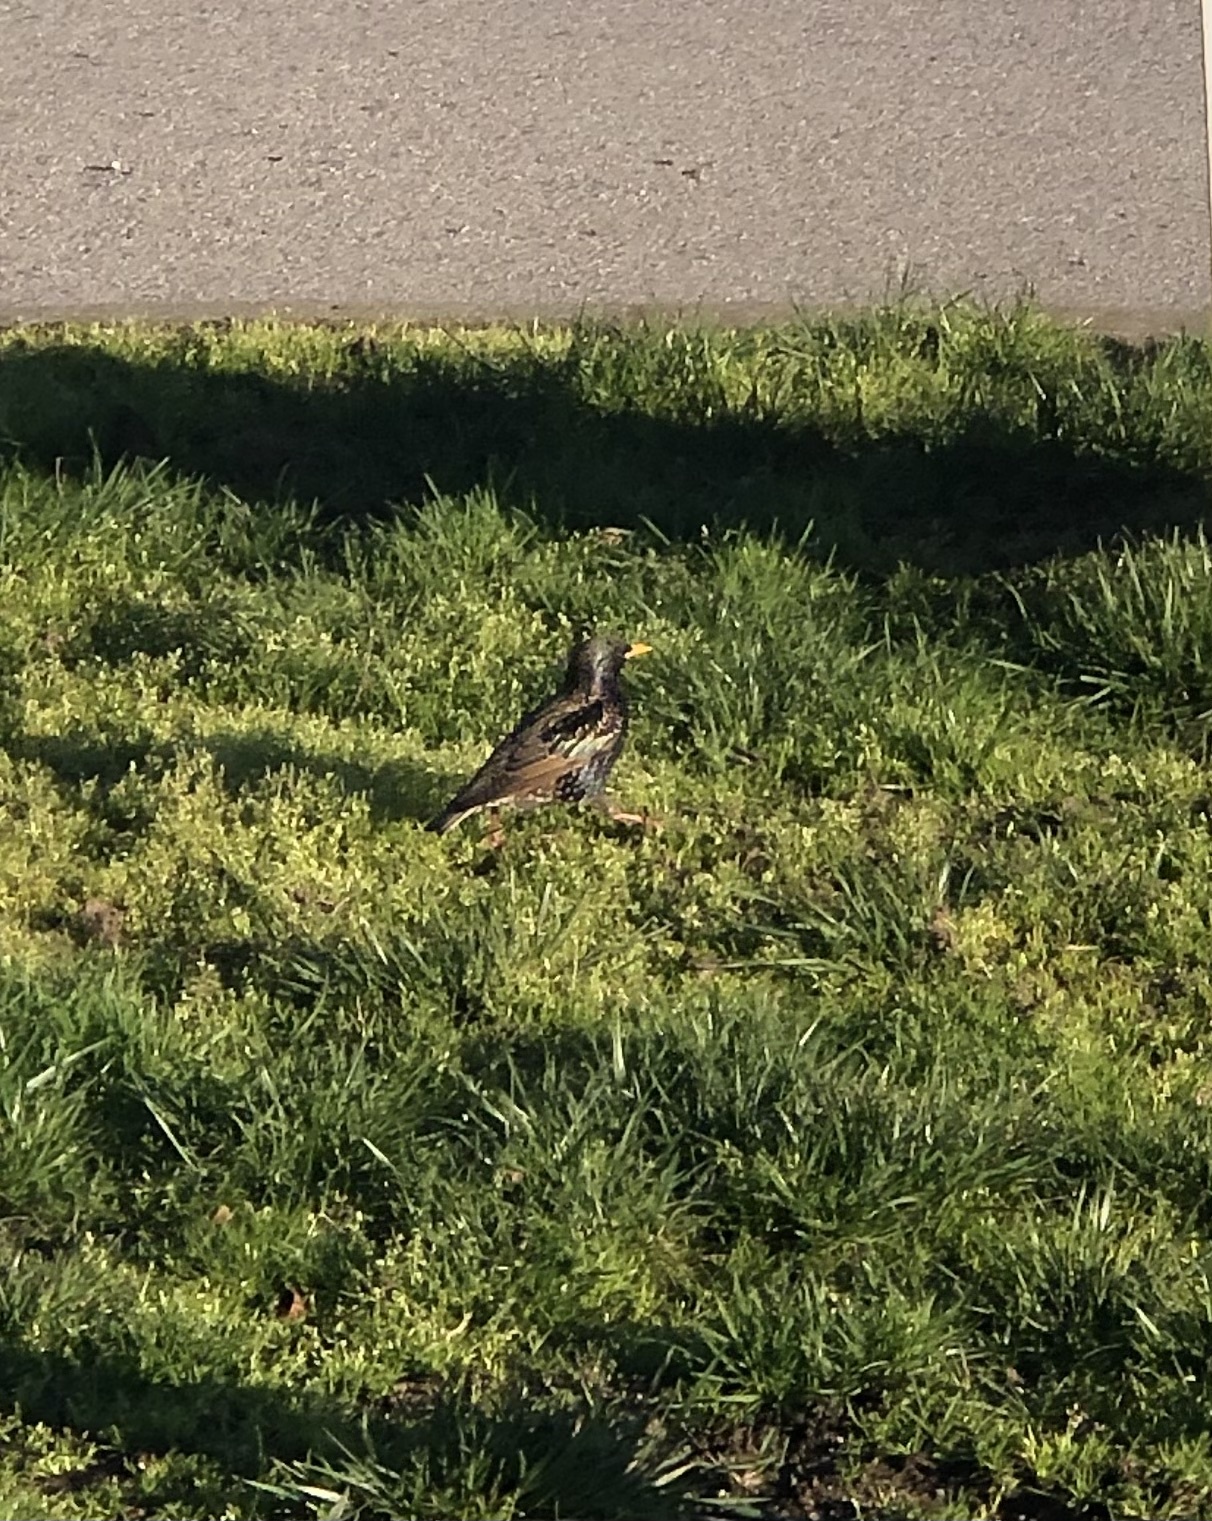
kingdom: Animalia
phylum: Chordata
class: Aves
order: Passeriformes
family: Sturnidae
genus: Sturnus
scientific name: Sturnus vulgaris
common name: Common starling
